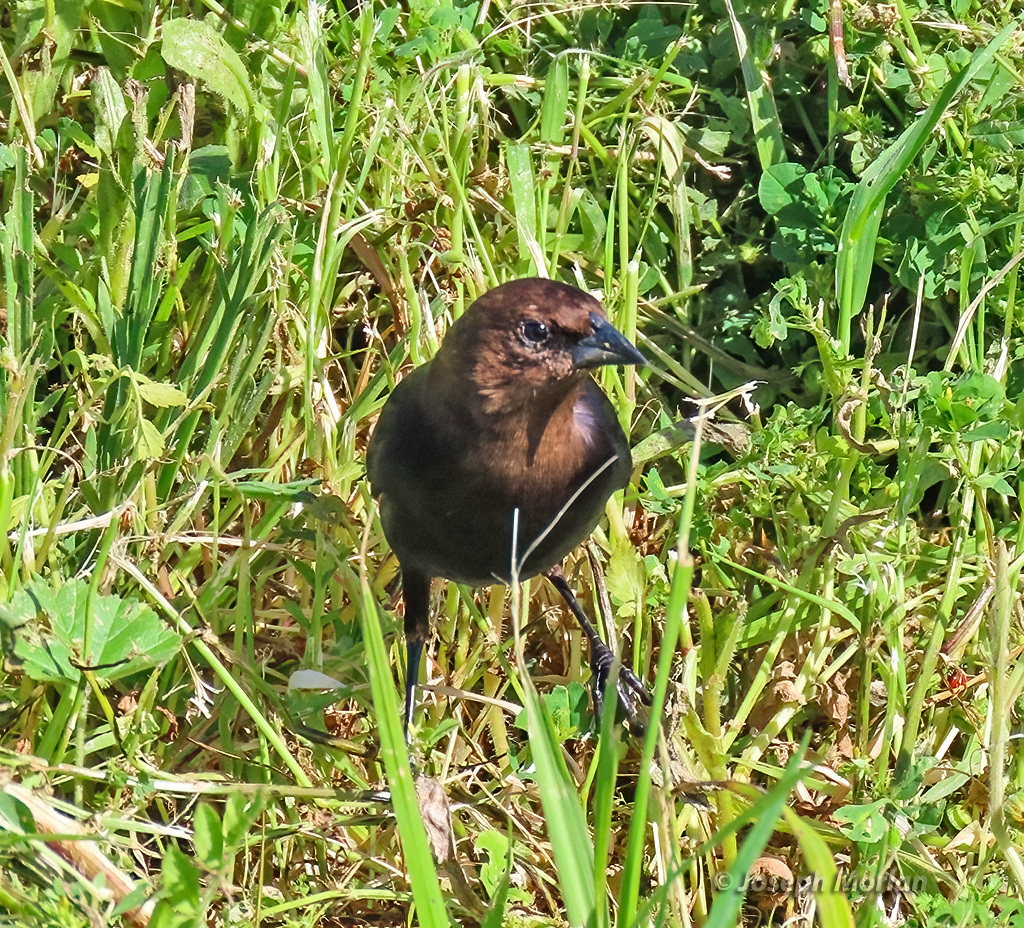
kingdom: Animalia
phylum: Chordata
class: Aves
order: Passeriformes
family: Icteridae
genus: Molothrus
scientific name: Molothrus ater
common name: Brown-headed cowbird
